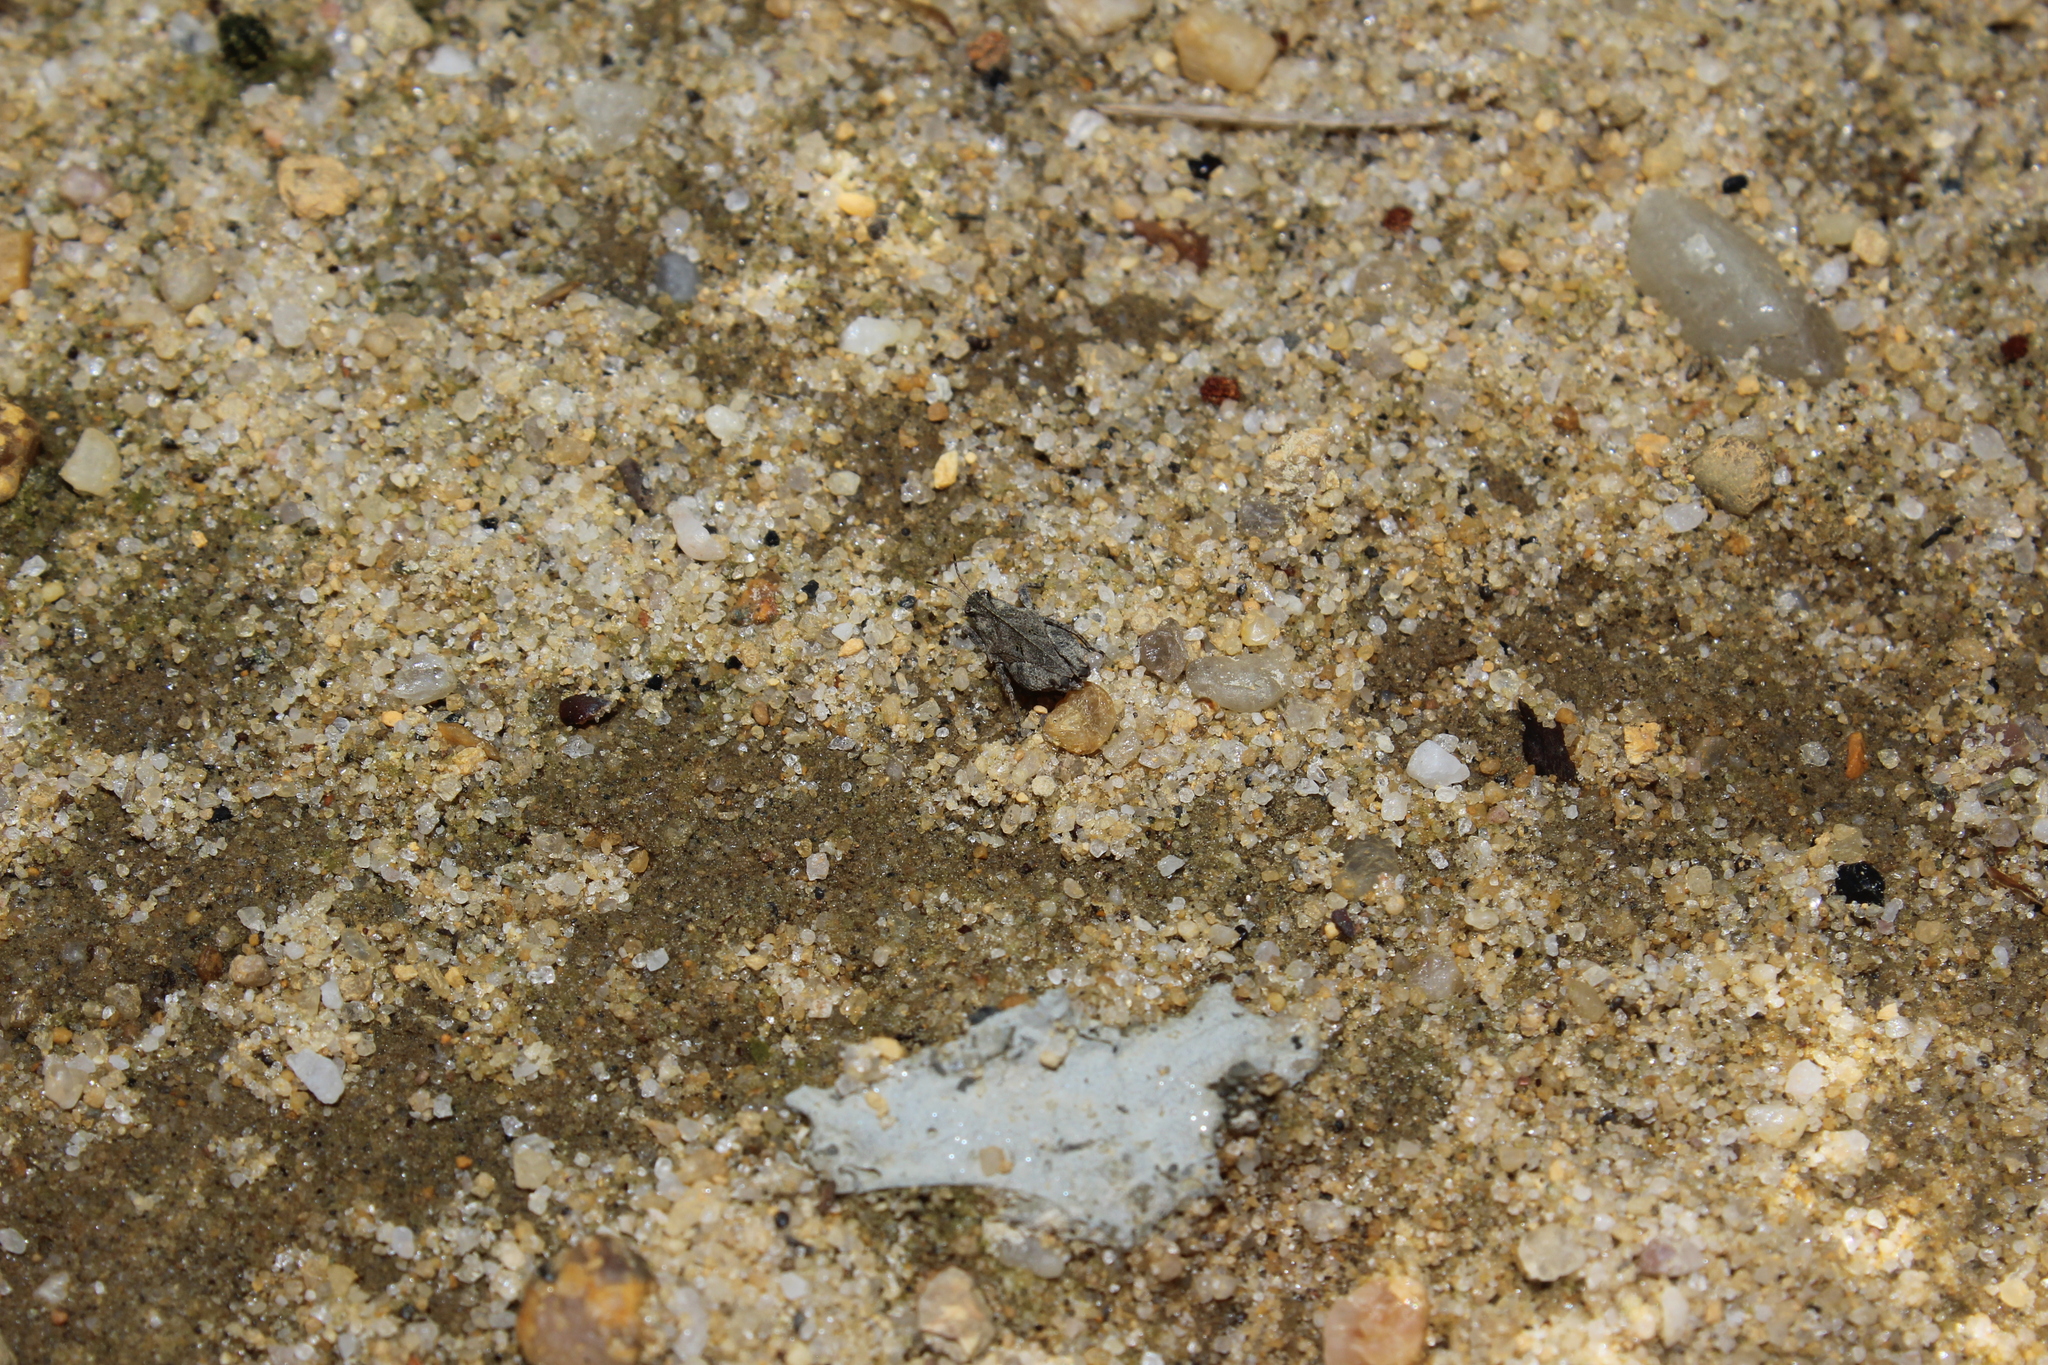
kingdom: Animalia
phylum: Arthropoda
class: Insecta
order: Orthoptera
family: Tetrigidae
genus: Nomotettix
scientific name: Nomotettix cristatus
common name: Crested grouse locust
